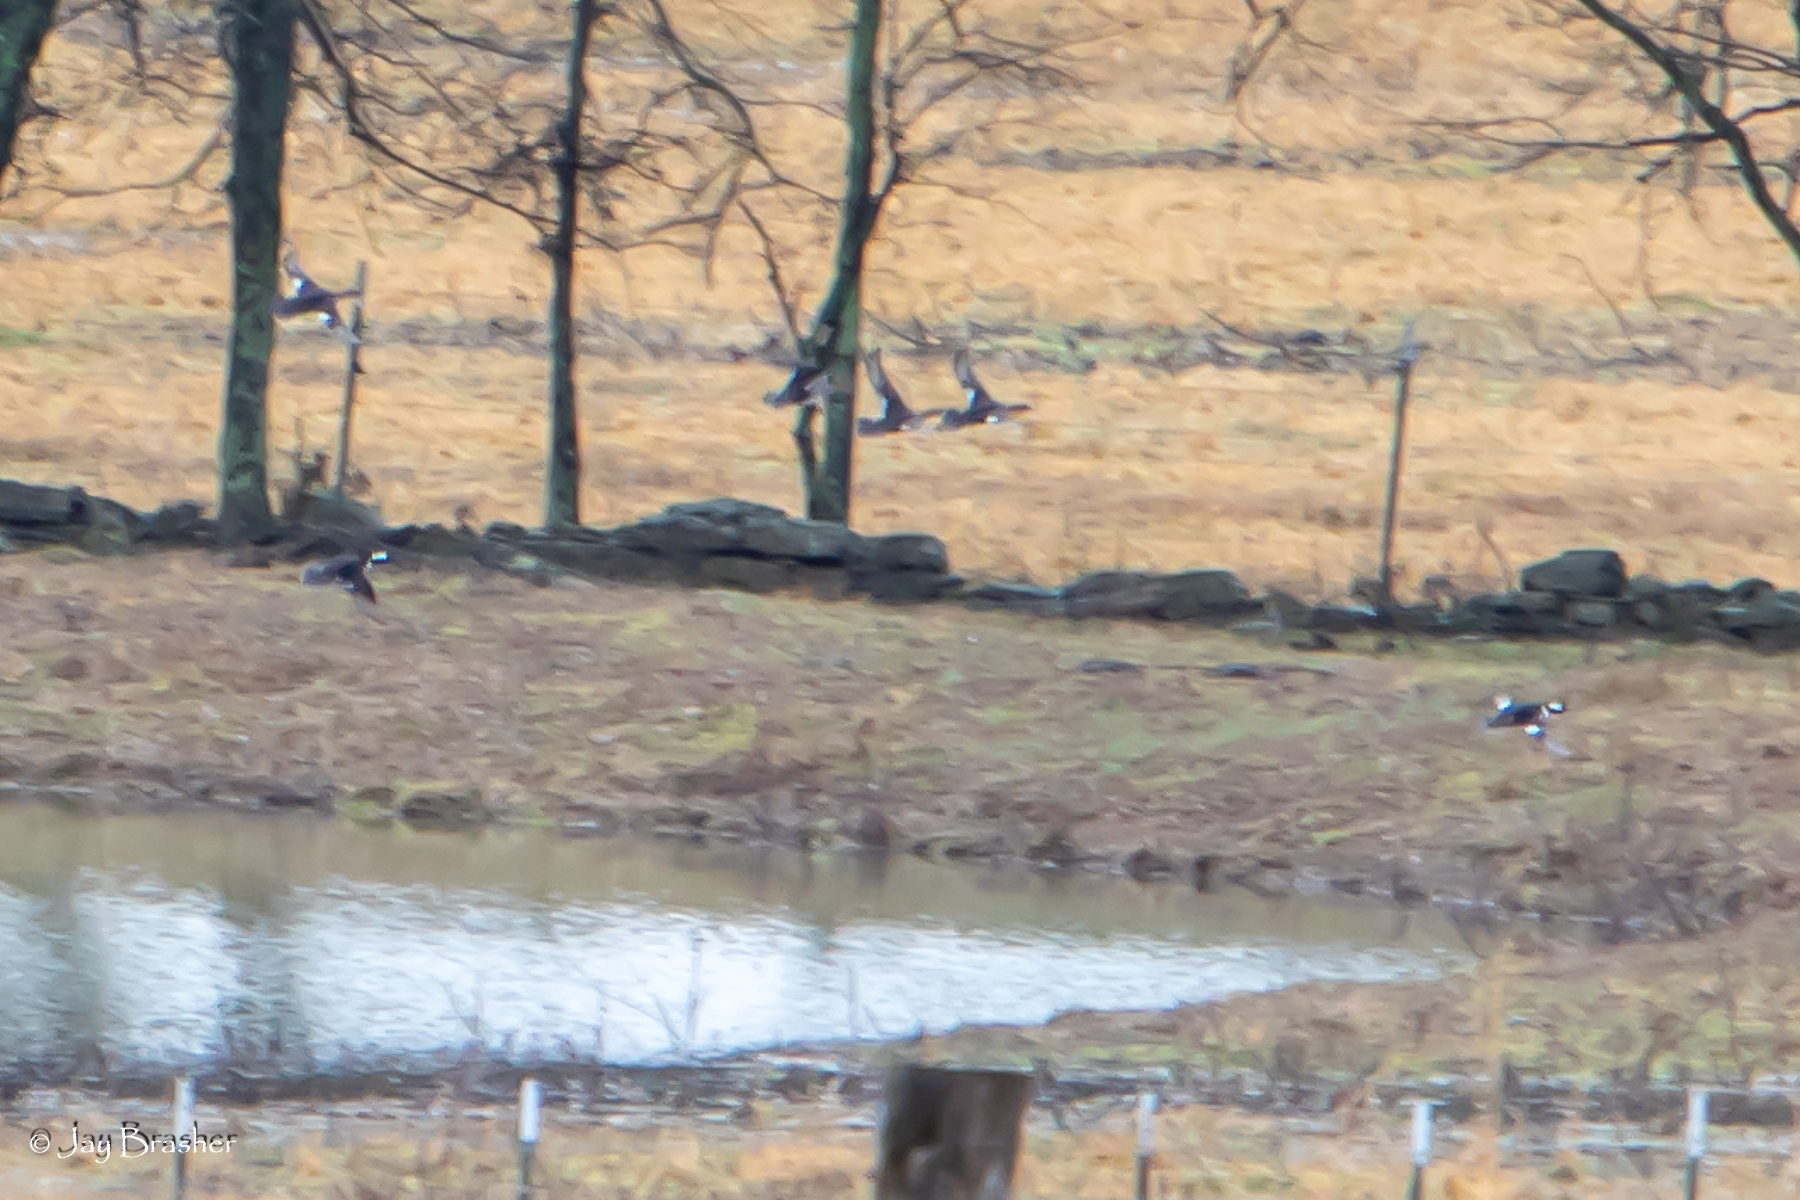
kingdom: Animalia
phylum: Chordata
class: Aves
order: Anseriformes
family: Anatidae
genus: Lophodytes
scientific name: Lophodytes cucullatus
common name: Hooded merganser
